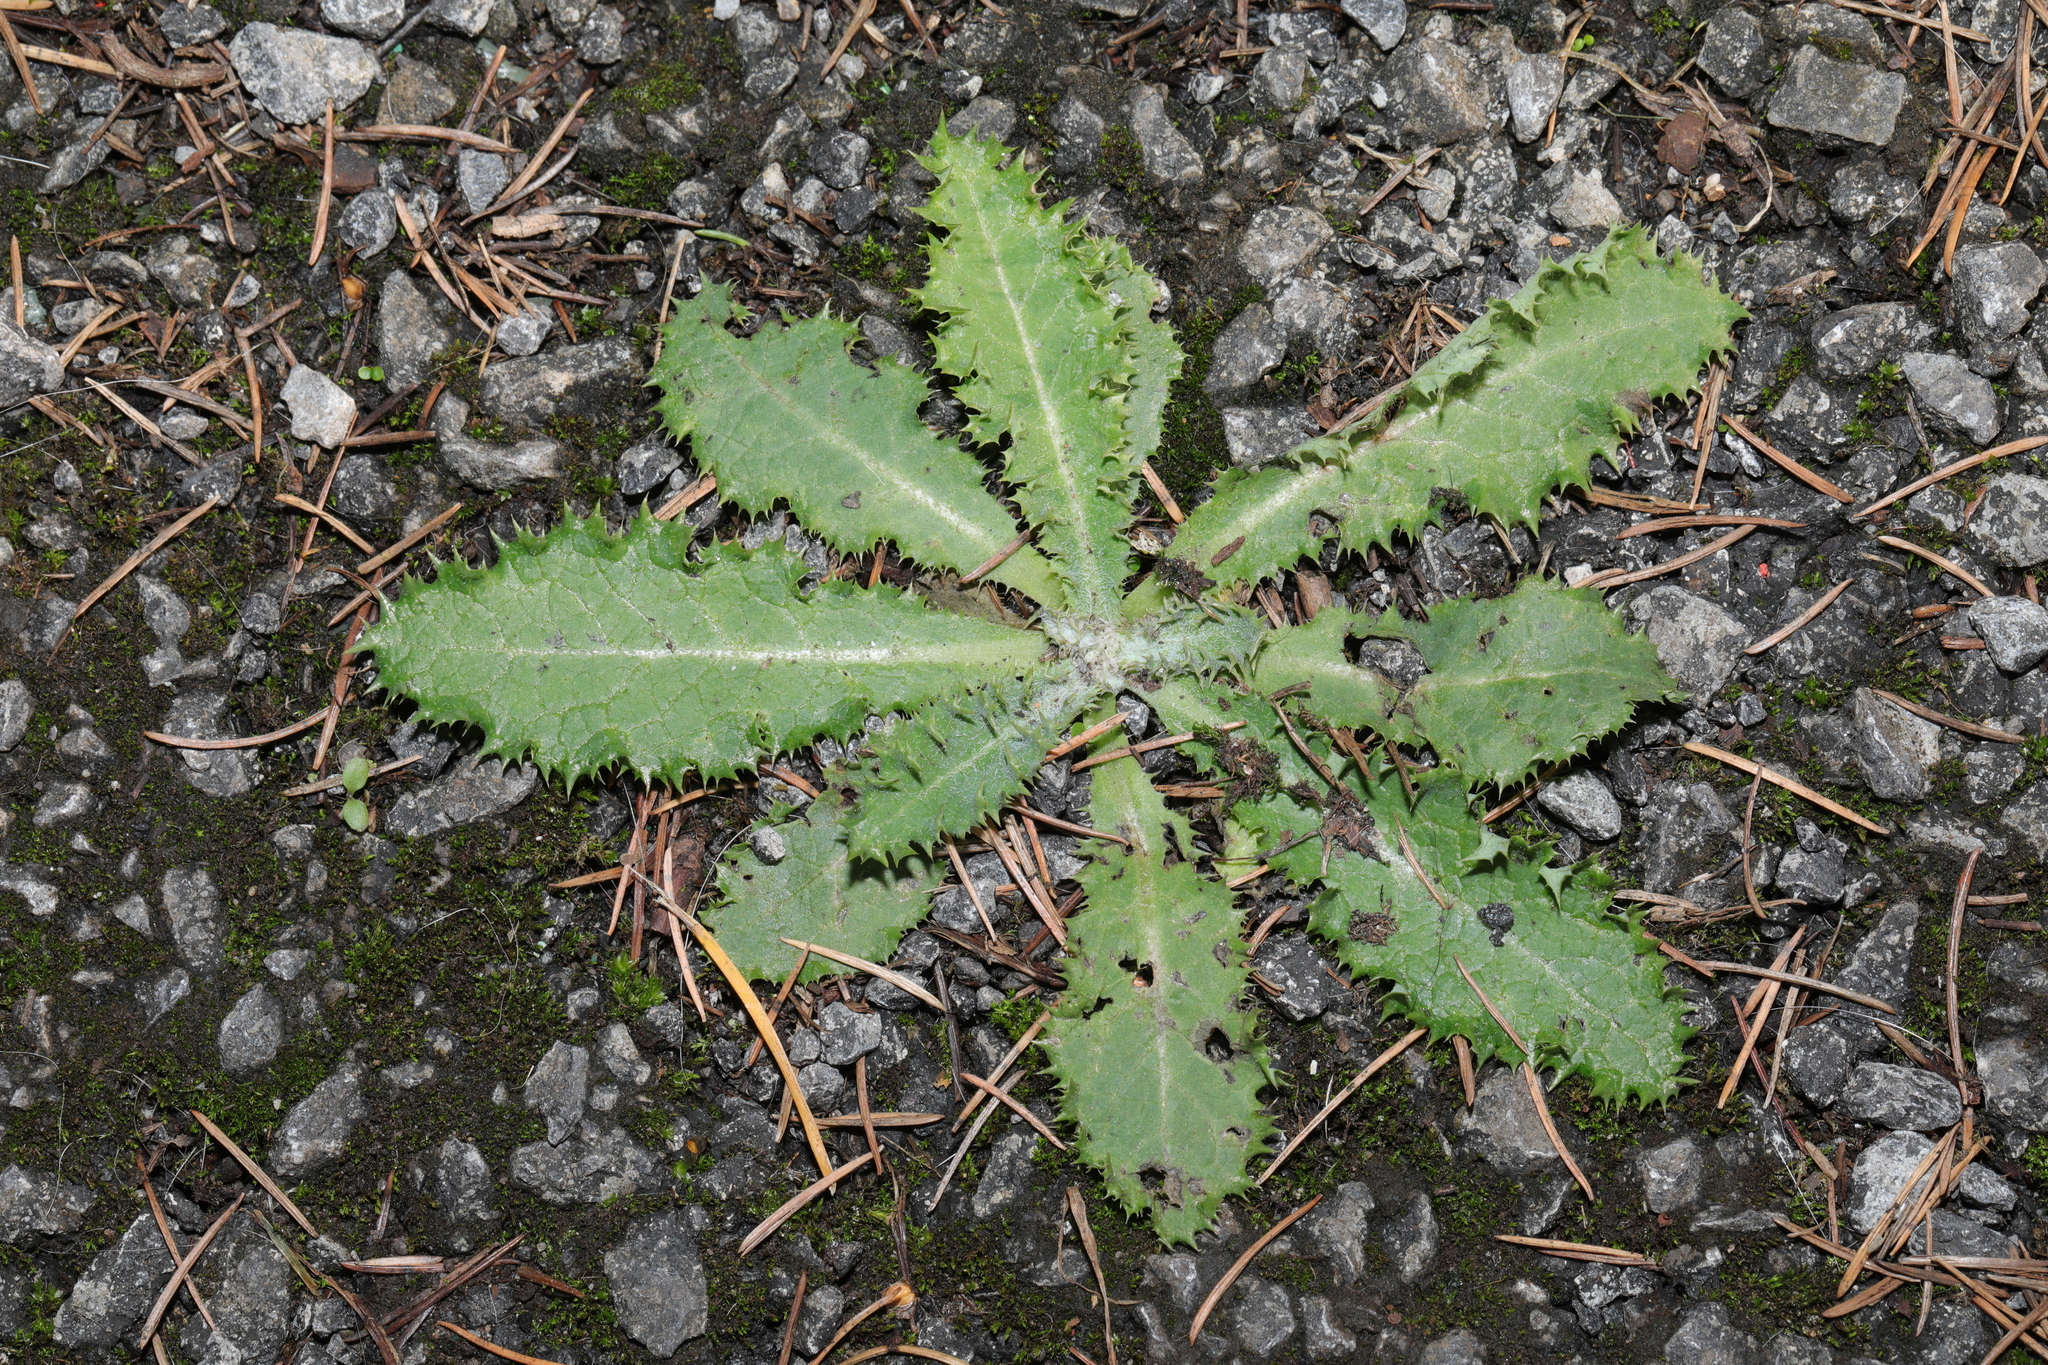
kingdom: Plantae
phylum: Tracheophyta
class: Magnoliopsida
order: Asterales
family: Asteraceae
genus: Sonchus
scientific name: Sonchus asper
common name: Prickly sow-thistle
